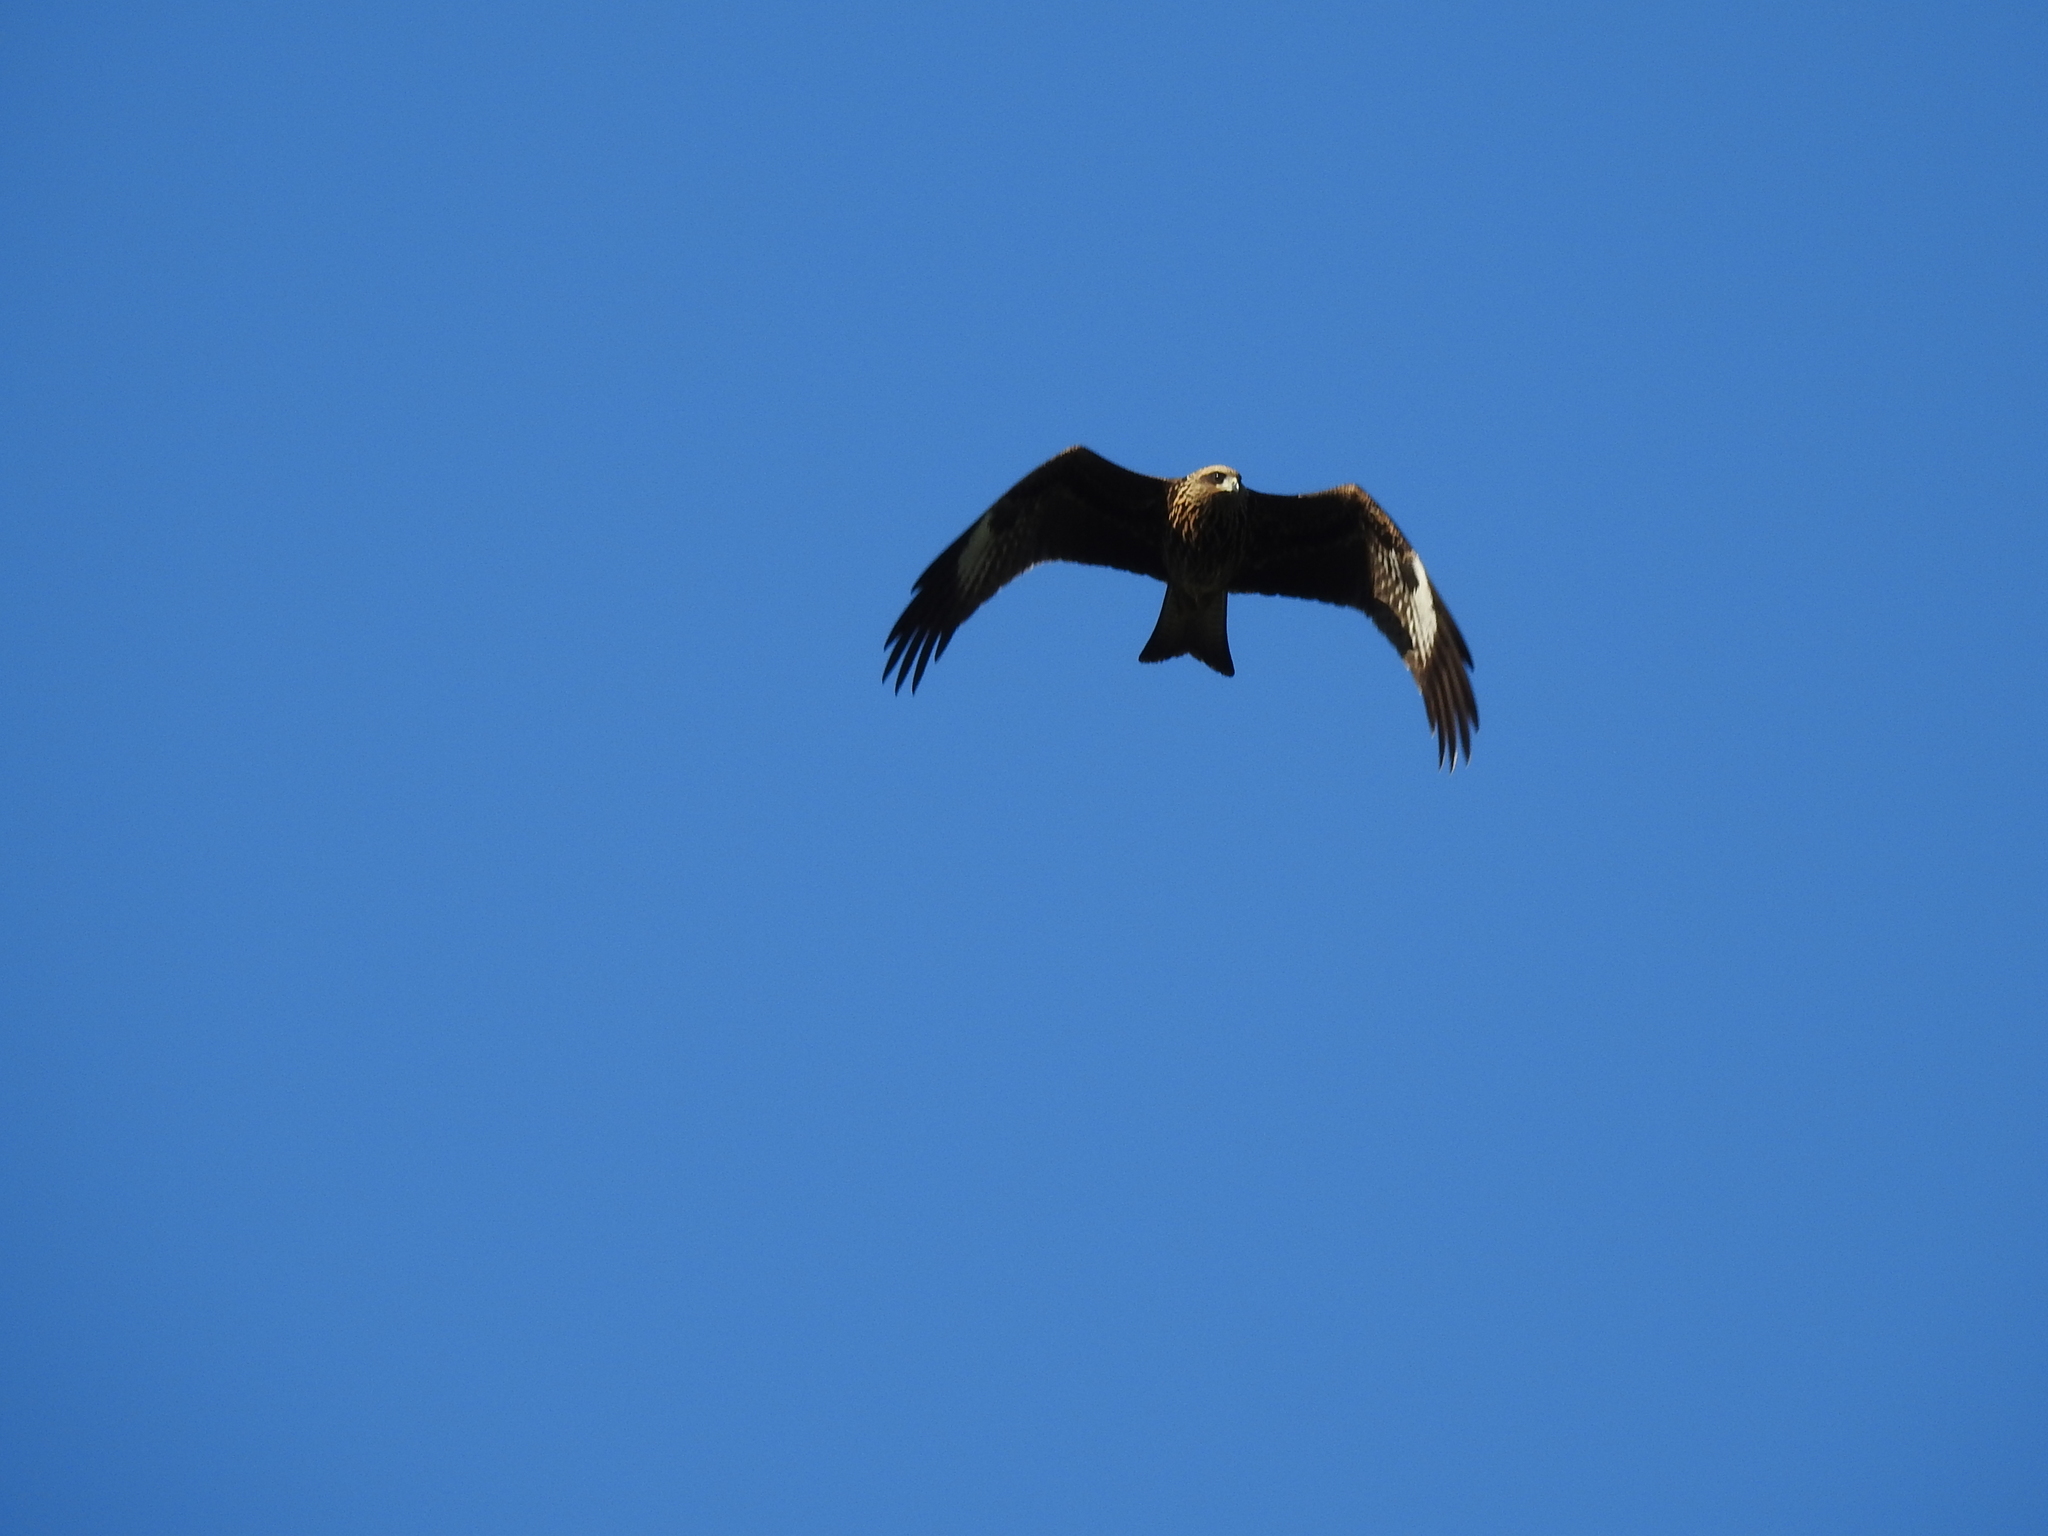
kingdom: Animalia
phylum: Chordata
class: Aves
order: Accipitriformes
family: Accipitridae
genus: Milvus
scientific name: Milvus migrans
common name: Black kite
